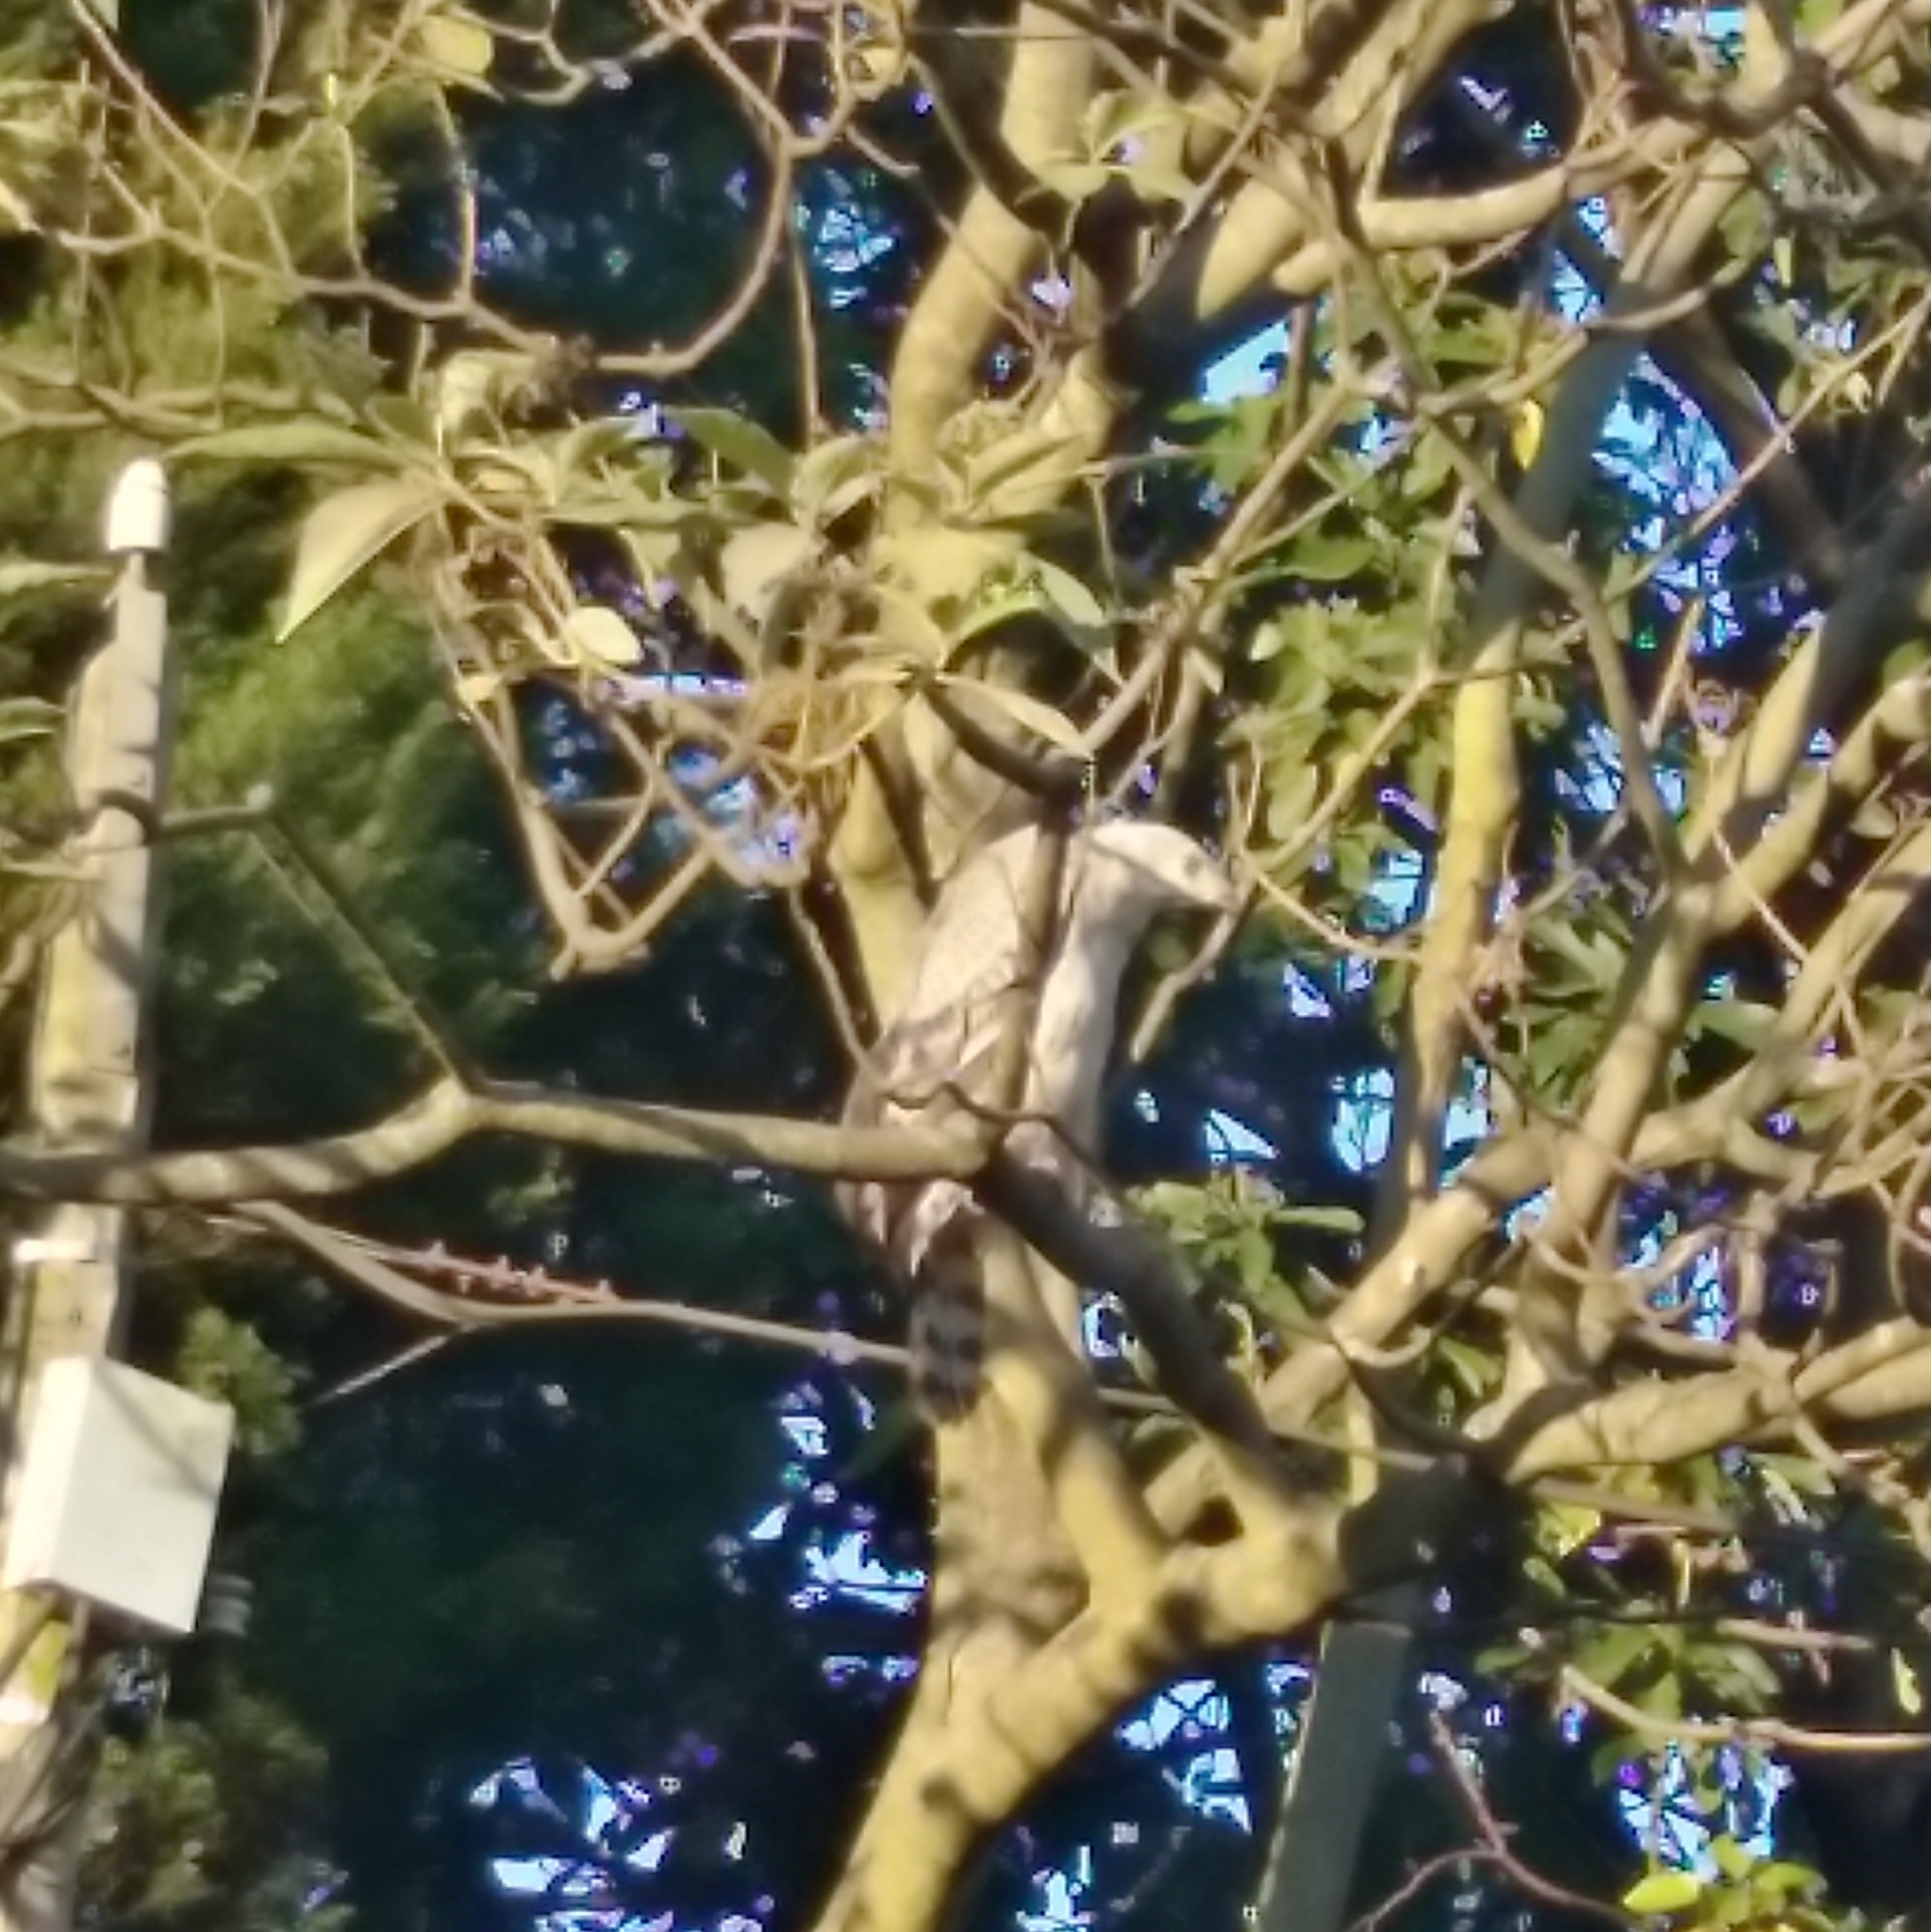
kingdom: Animalia
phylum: Chordata
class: Aves
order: Accipitriformes
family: Accipitridae
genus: Stephanoaetus
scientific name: Stephanoaetus coronatus
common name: Crowned eagle
